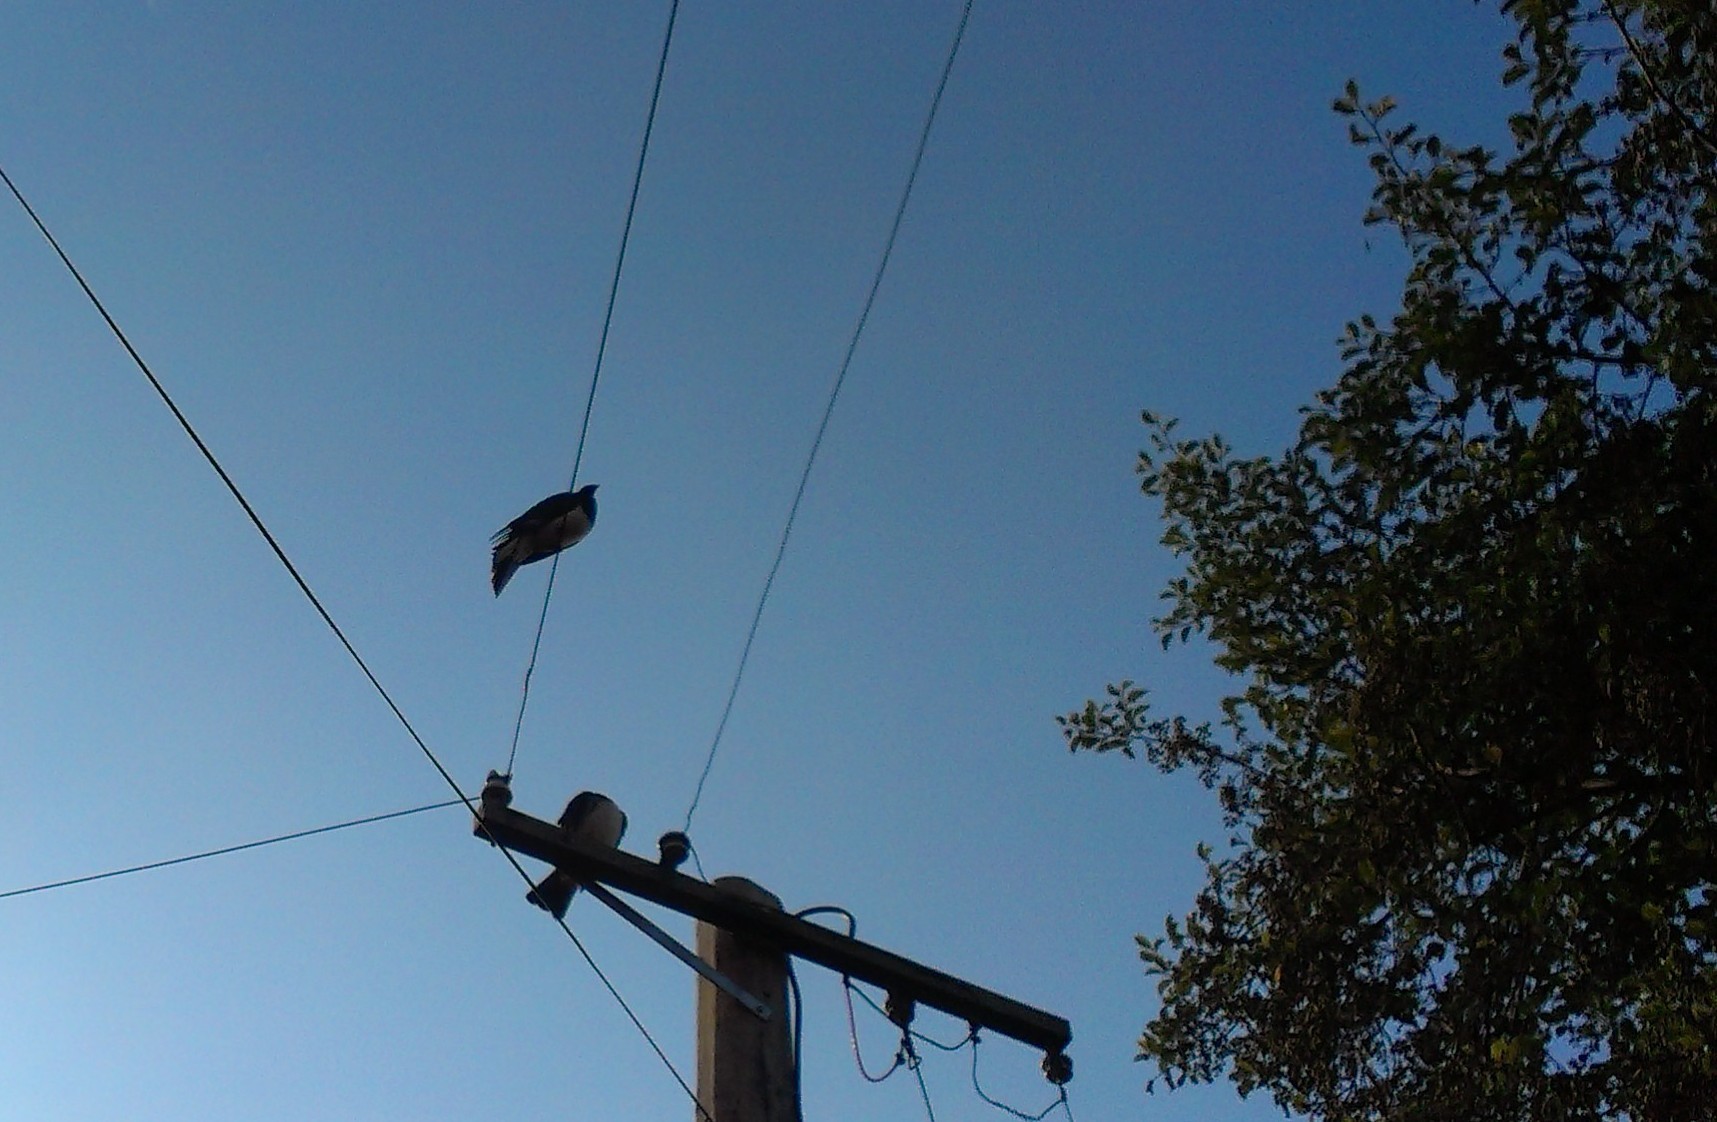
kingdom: Animalia
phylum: Chordata
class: Aves
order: Columbiformes
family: Columbidae
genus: Hemiphaga
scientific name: Hemiphaga novaeseelandiae
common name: New zealand pigeon
